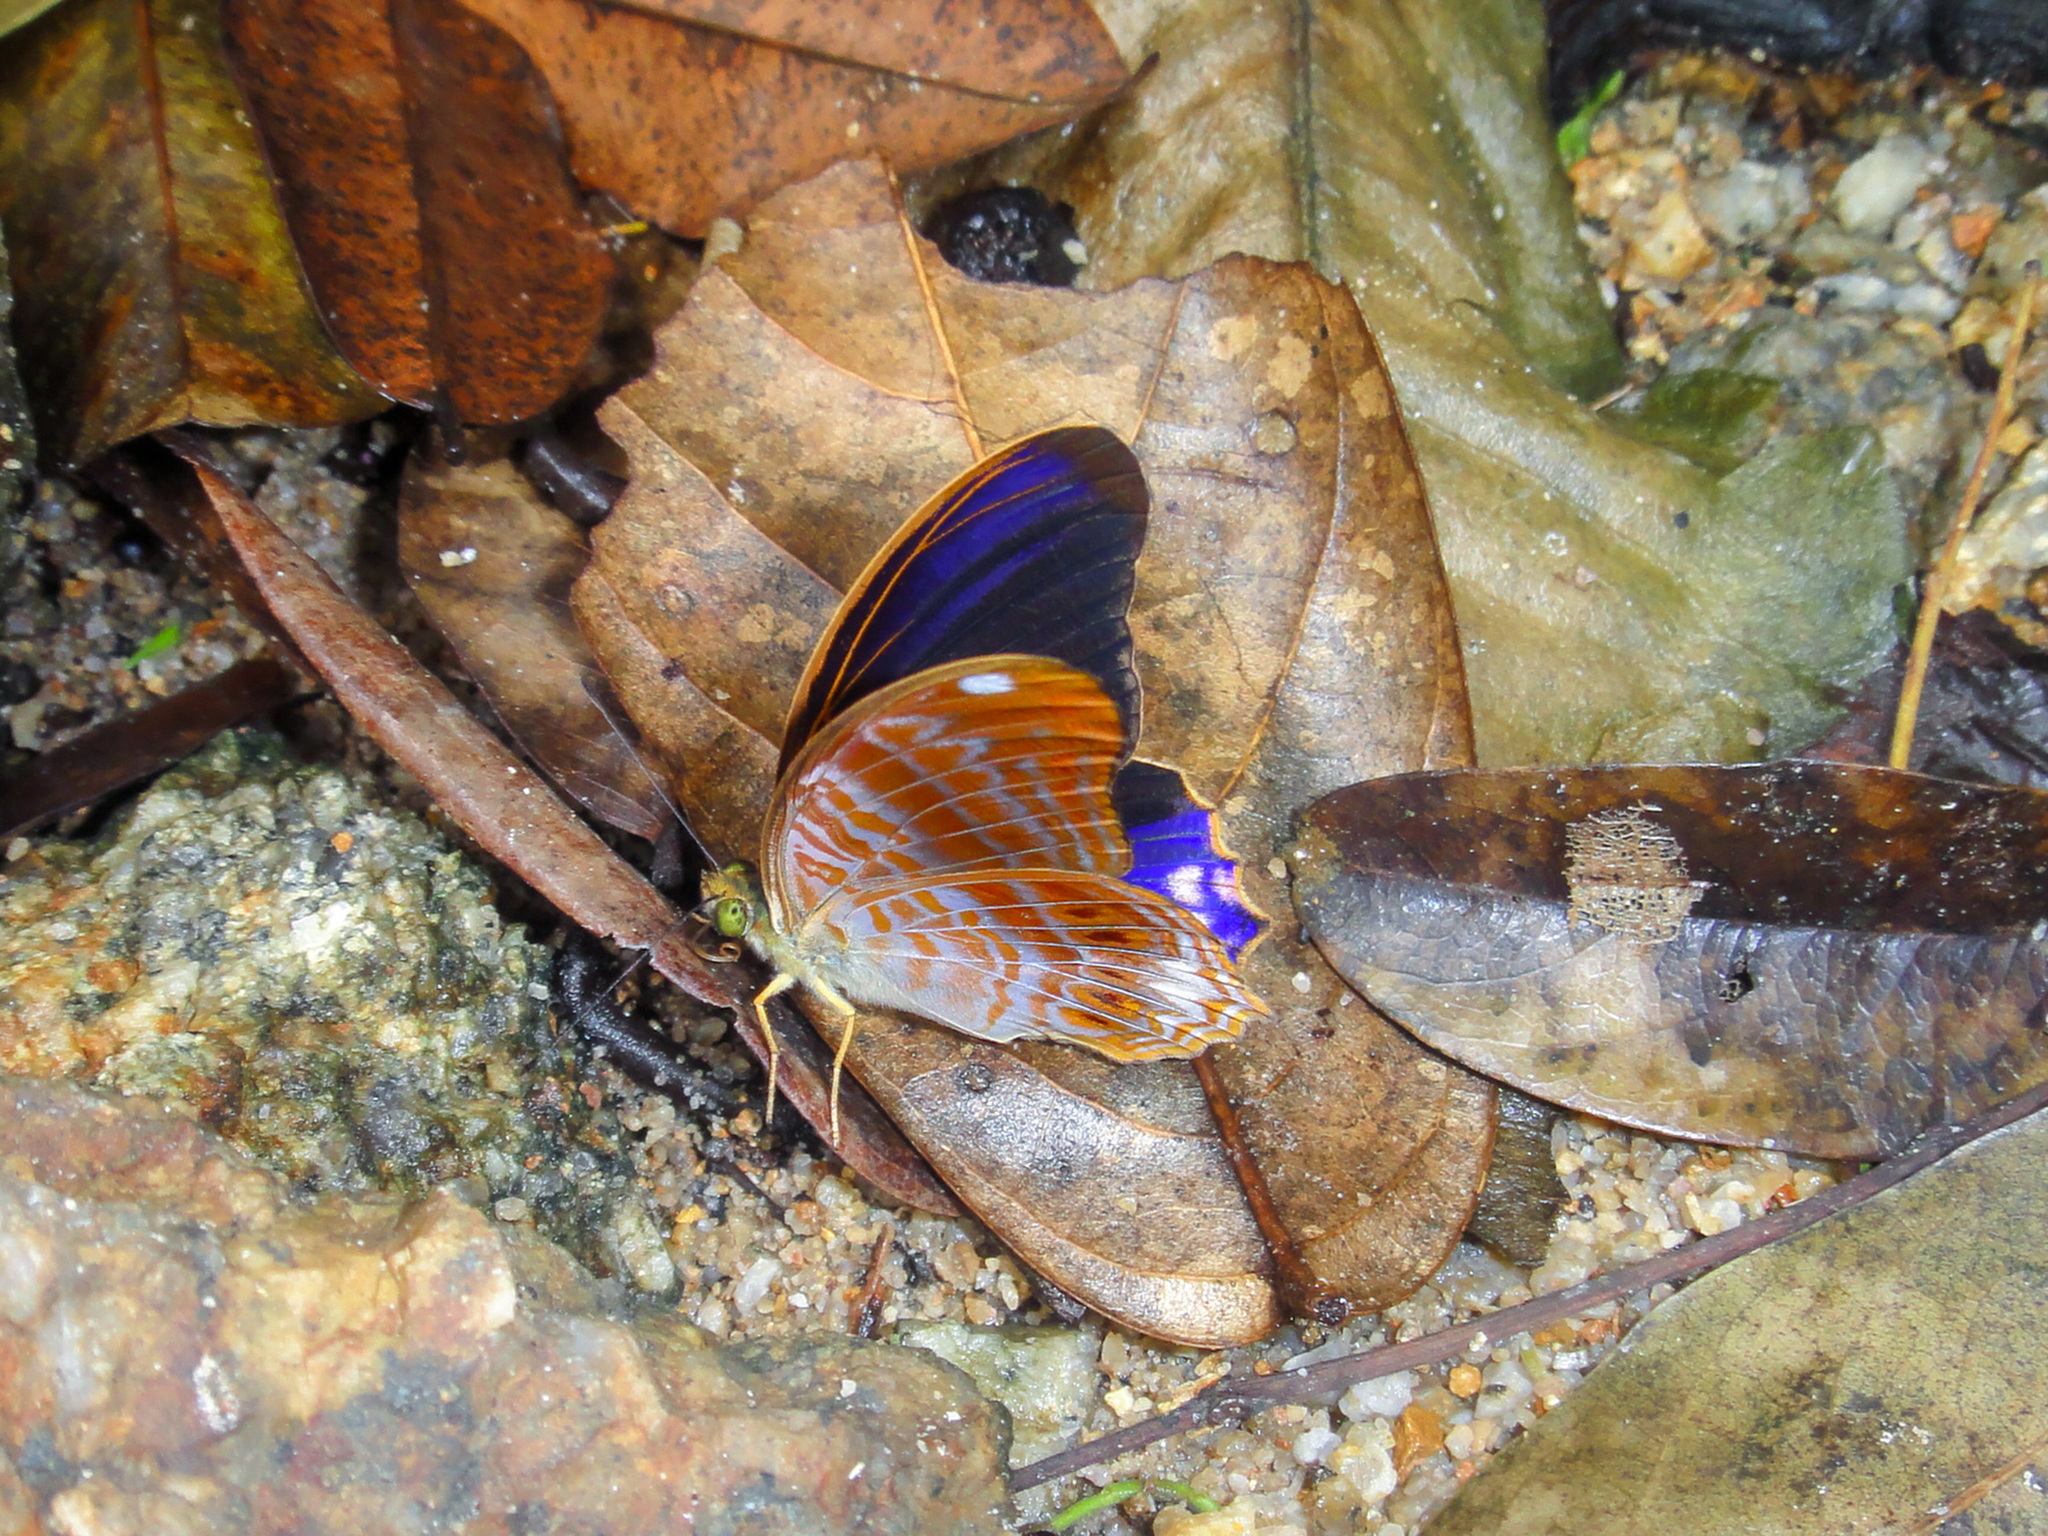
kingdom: Animalia
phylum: Arthropoda
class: Insecta
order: Lepidoptera
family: Nymphalidae
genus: Terinos
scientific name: Terinos terpander
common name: Royal assyrian
